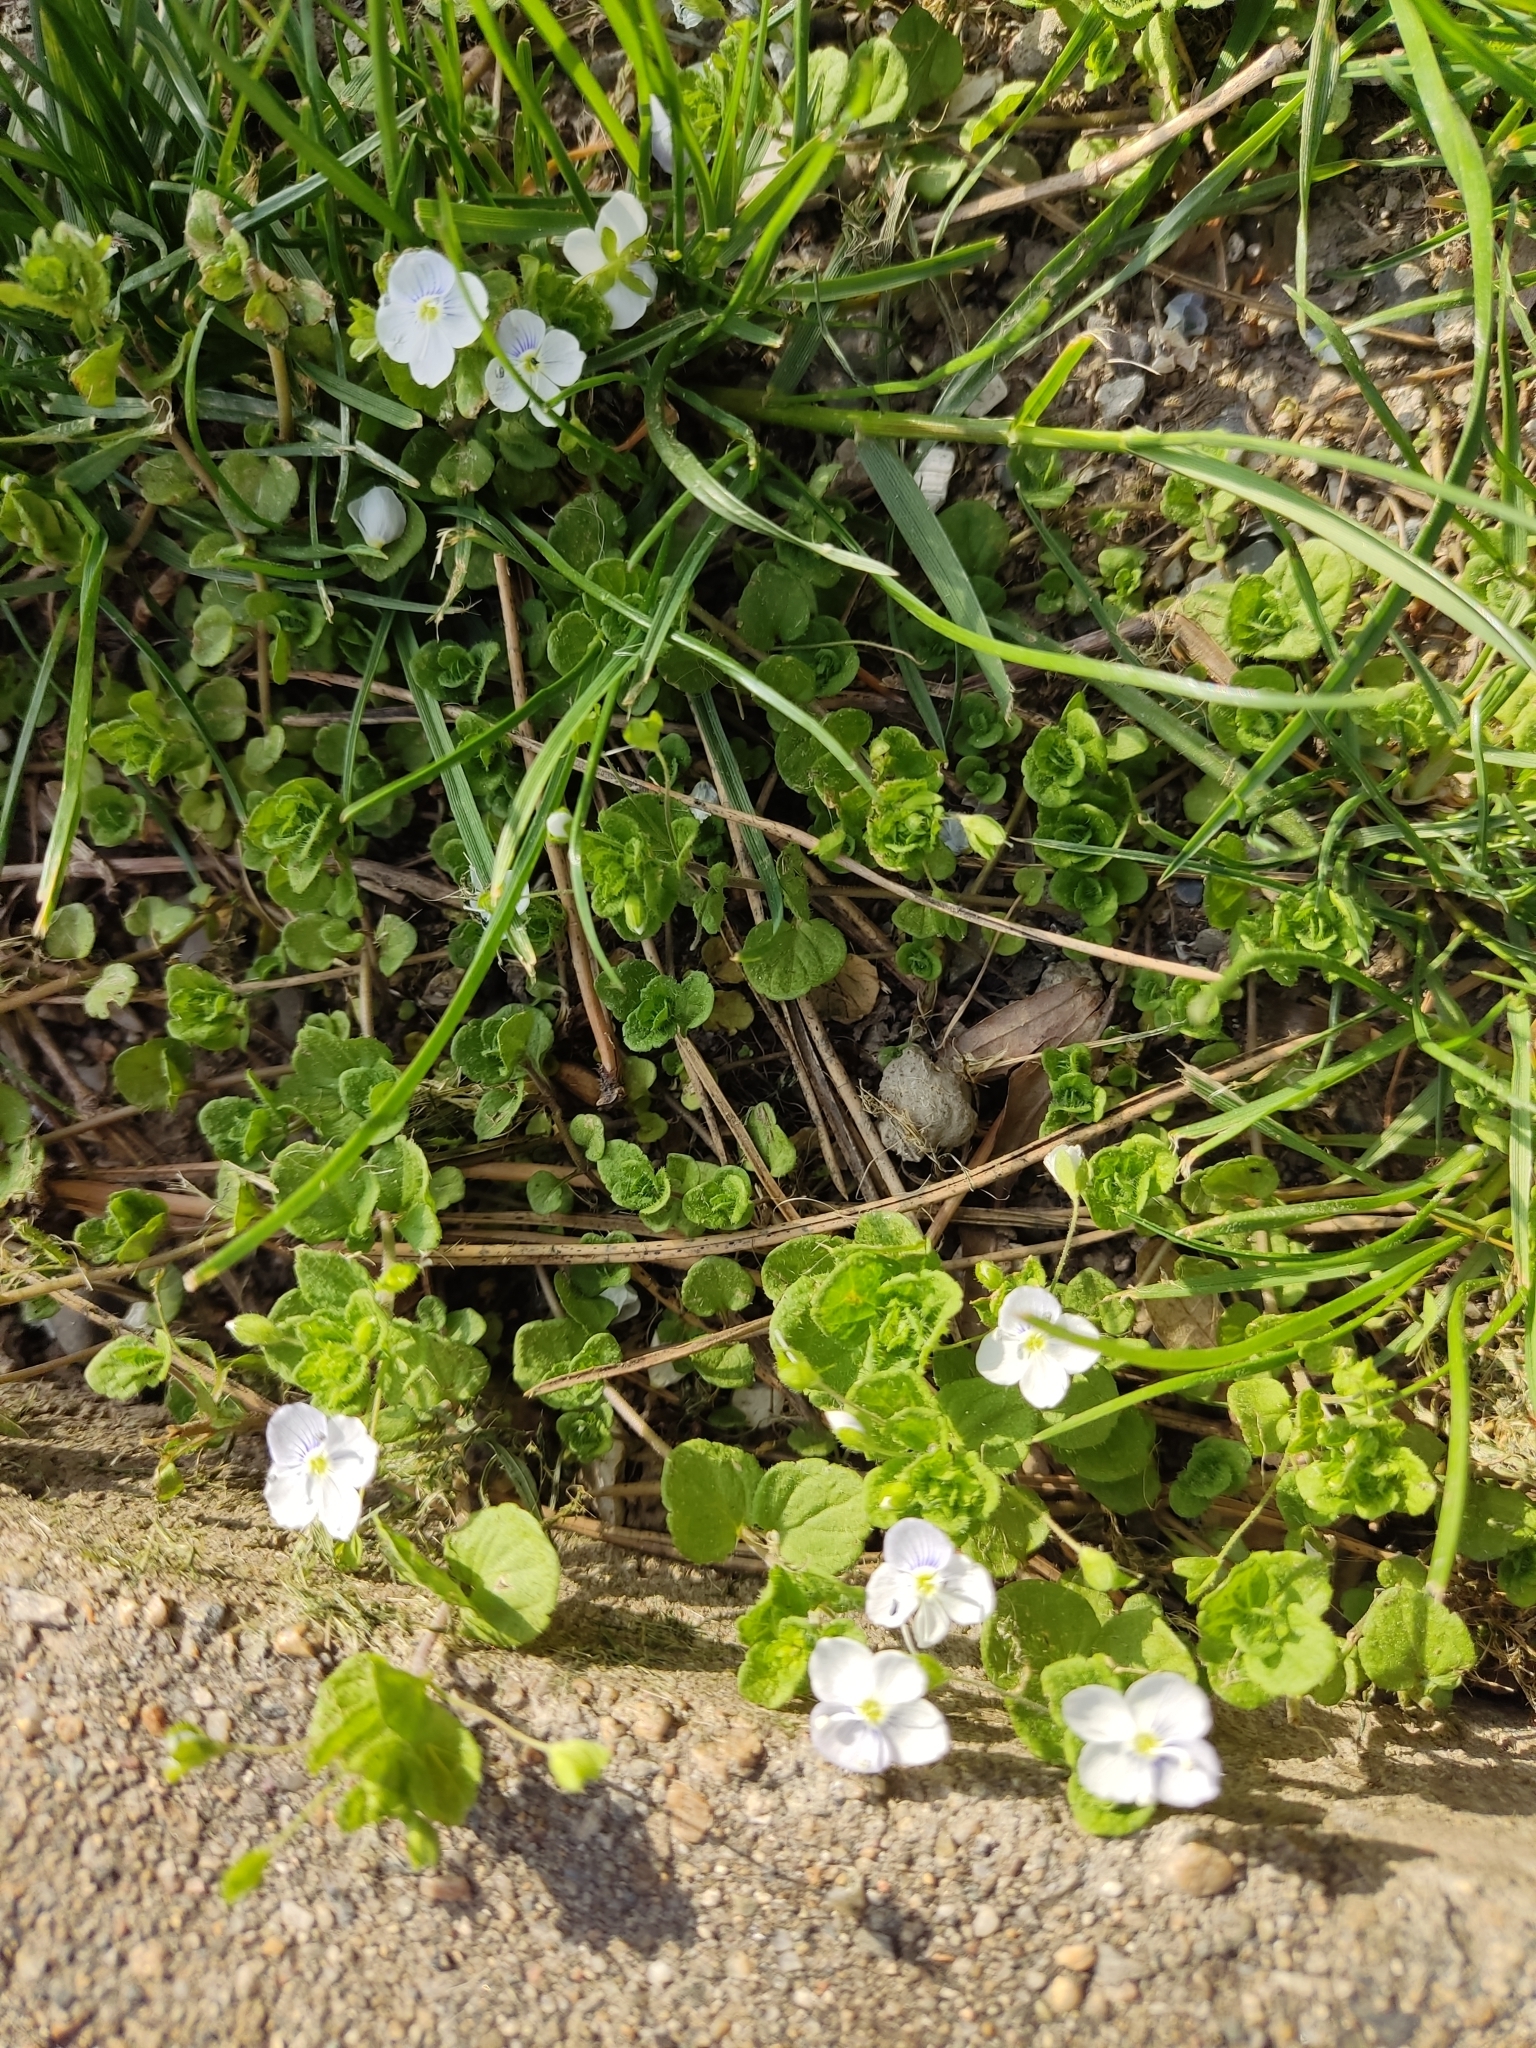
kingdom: Plantae
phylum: Tracheophyta
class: Magnoliopsida
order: Lamiales
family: Plantaginaceae
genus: Veronica
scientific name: Veronica filiformis
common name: Slender speedwell
